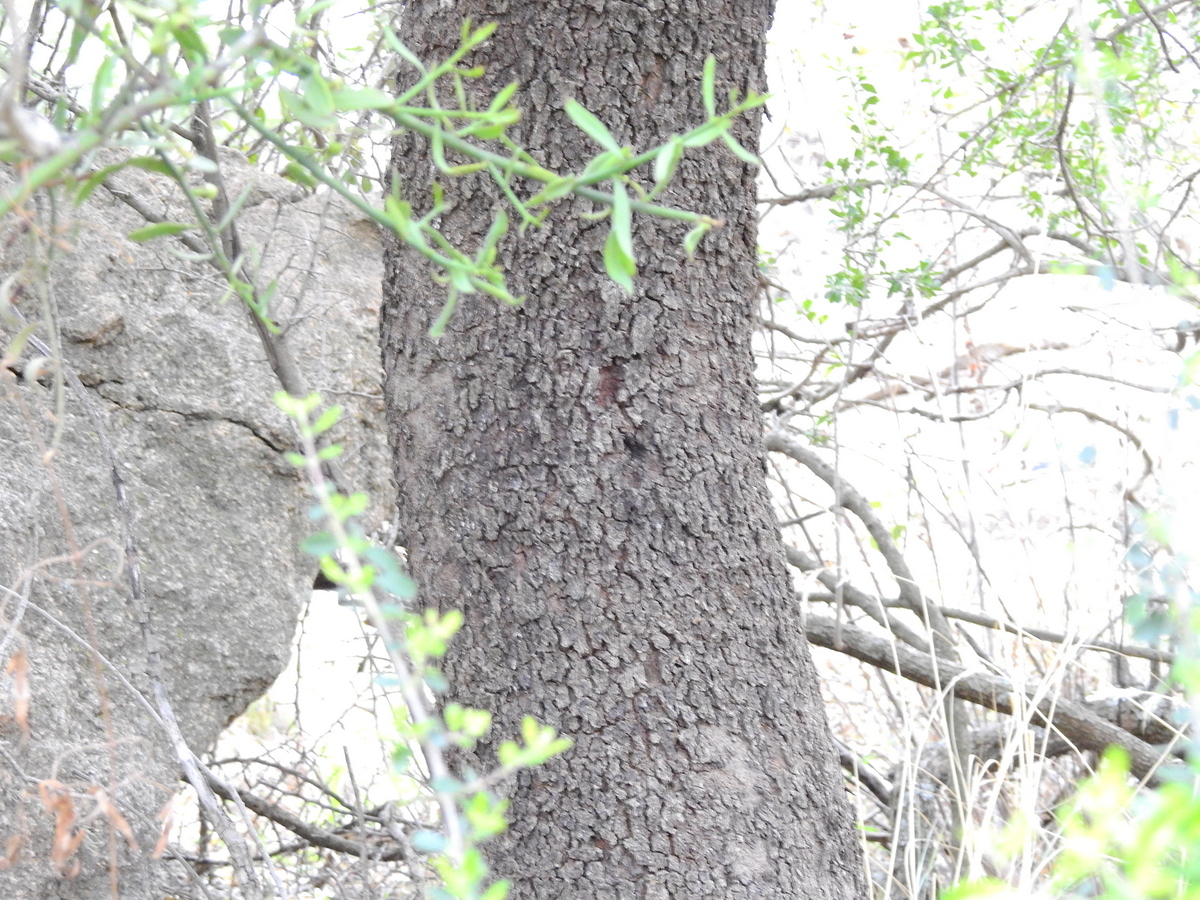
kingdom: Plantae
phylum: Tracheophyta
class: Magnoliopsida
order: Sapindales
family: Anacardiaceae
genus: Lithraea
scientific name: Lithraea molleoides
